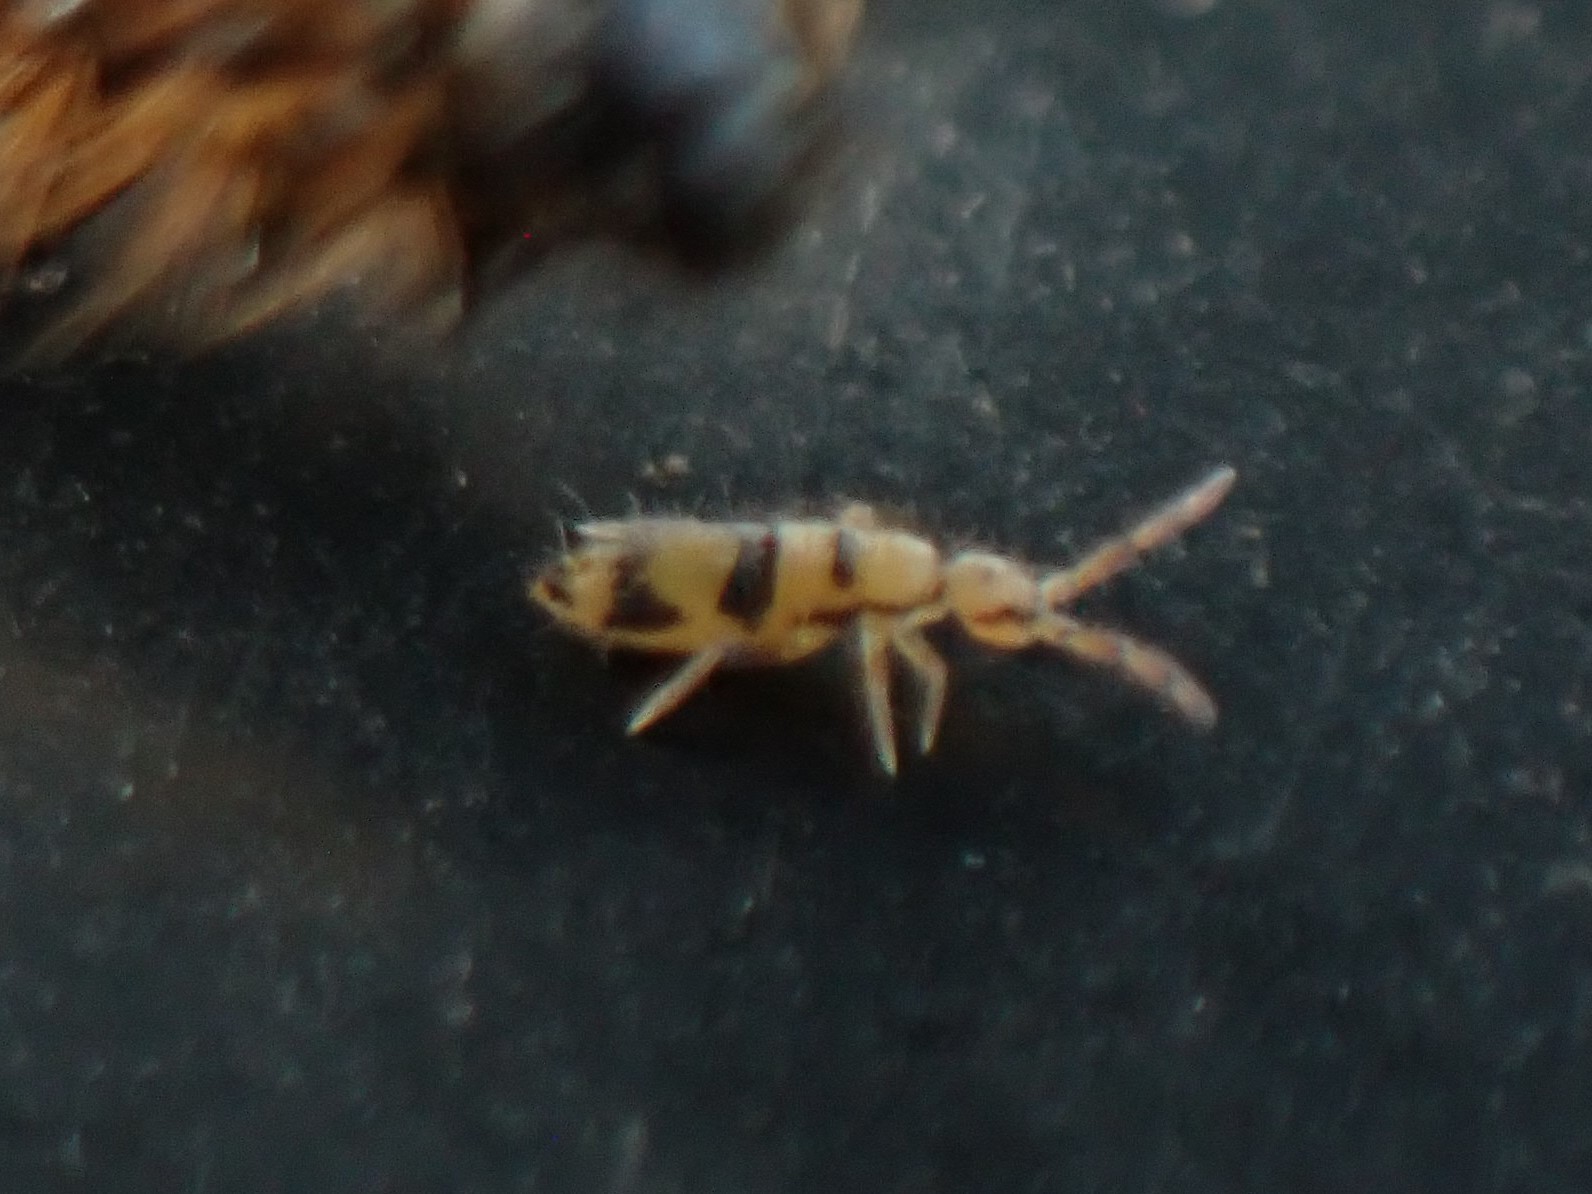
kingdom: Animalia
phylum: Arthropoda
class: Collembola
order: Entomobryomorpha
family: Entomobryidae
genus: Entomobrya
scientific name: Entomobrya triangularis
